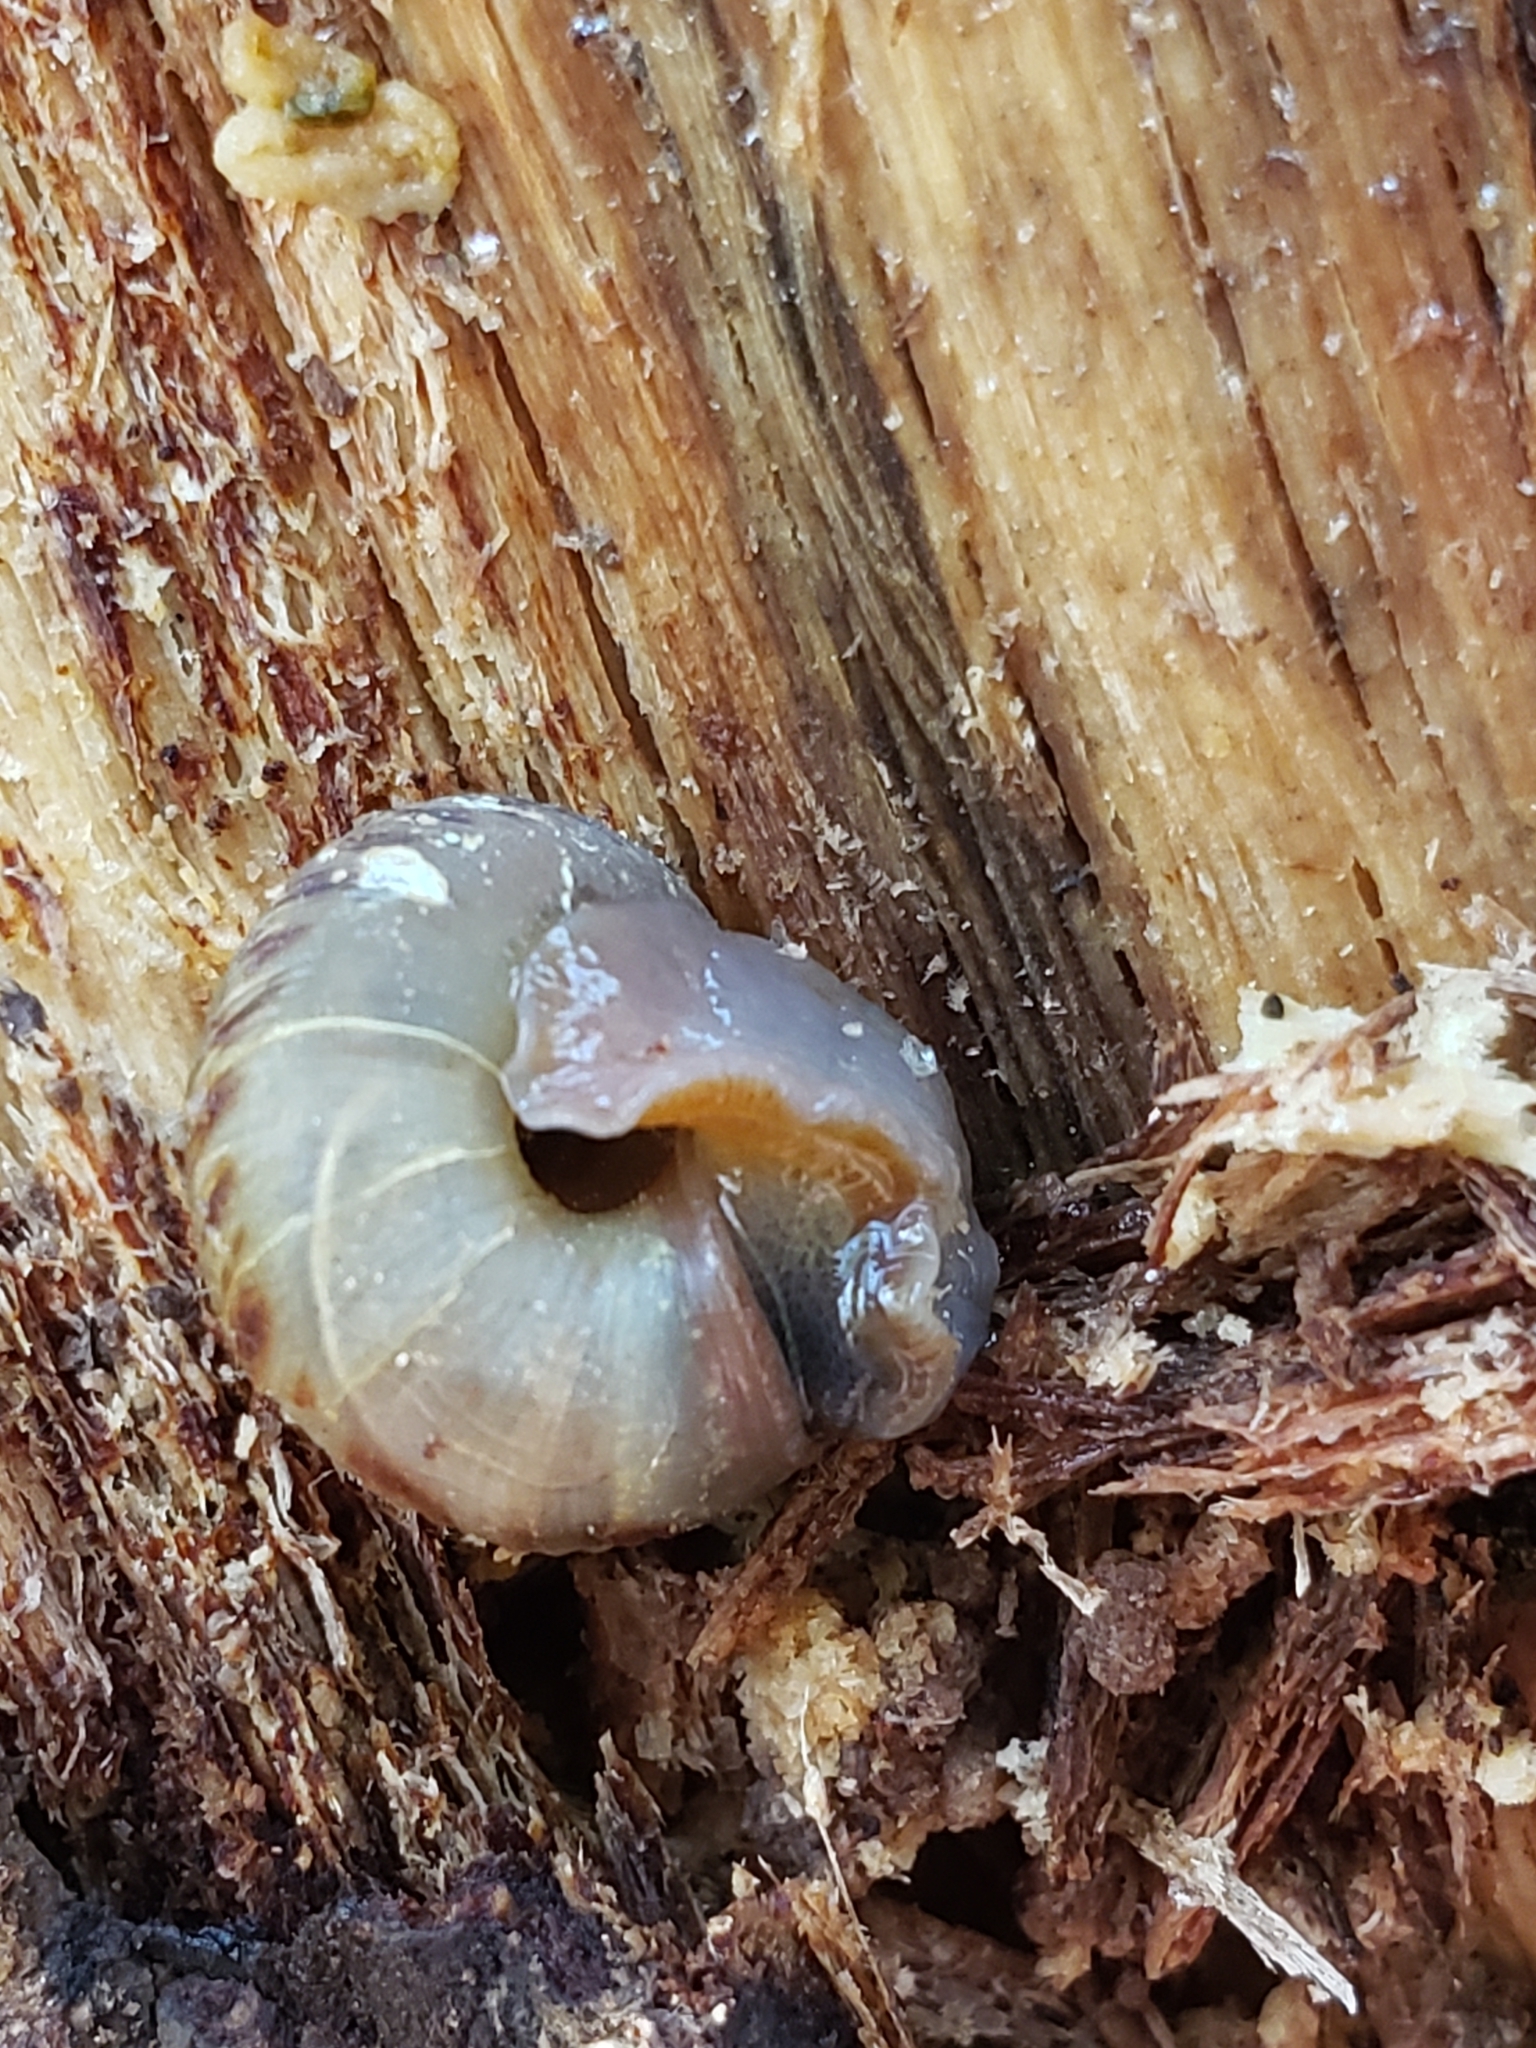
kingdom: Animalia
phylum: Mollusca
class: Gastropoda
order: Stylommatophora
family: Discidae
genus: Anguispira
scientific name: Anguispira alternata
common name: Flamed tigersnail
